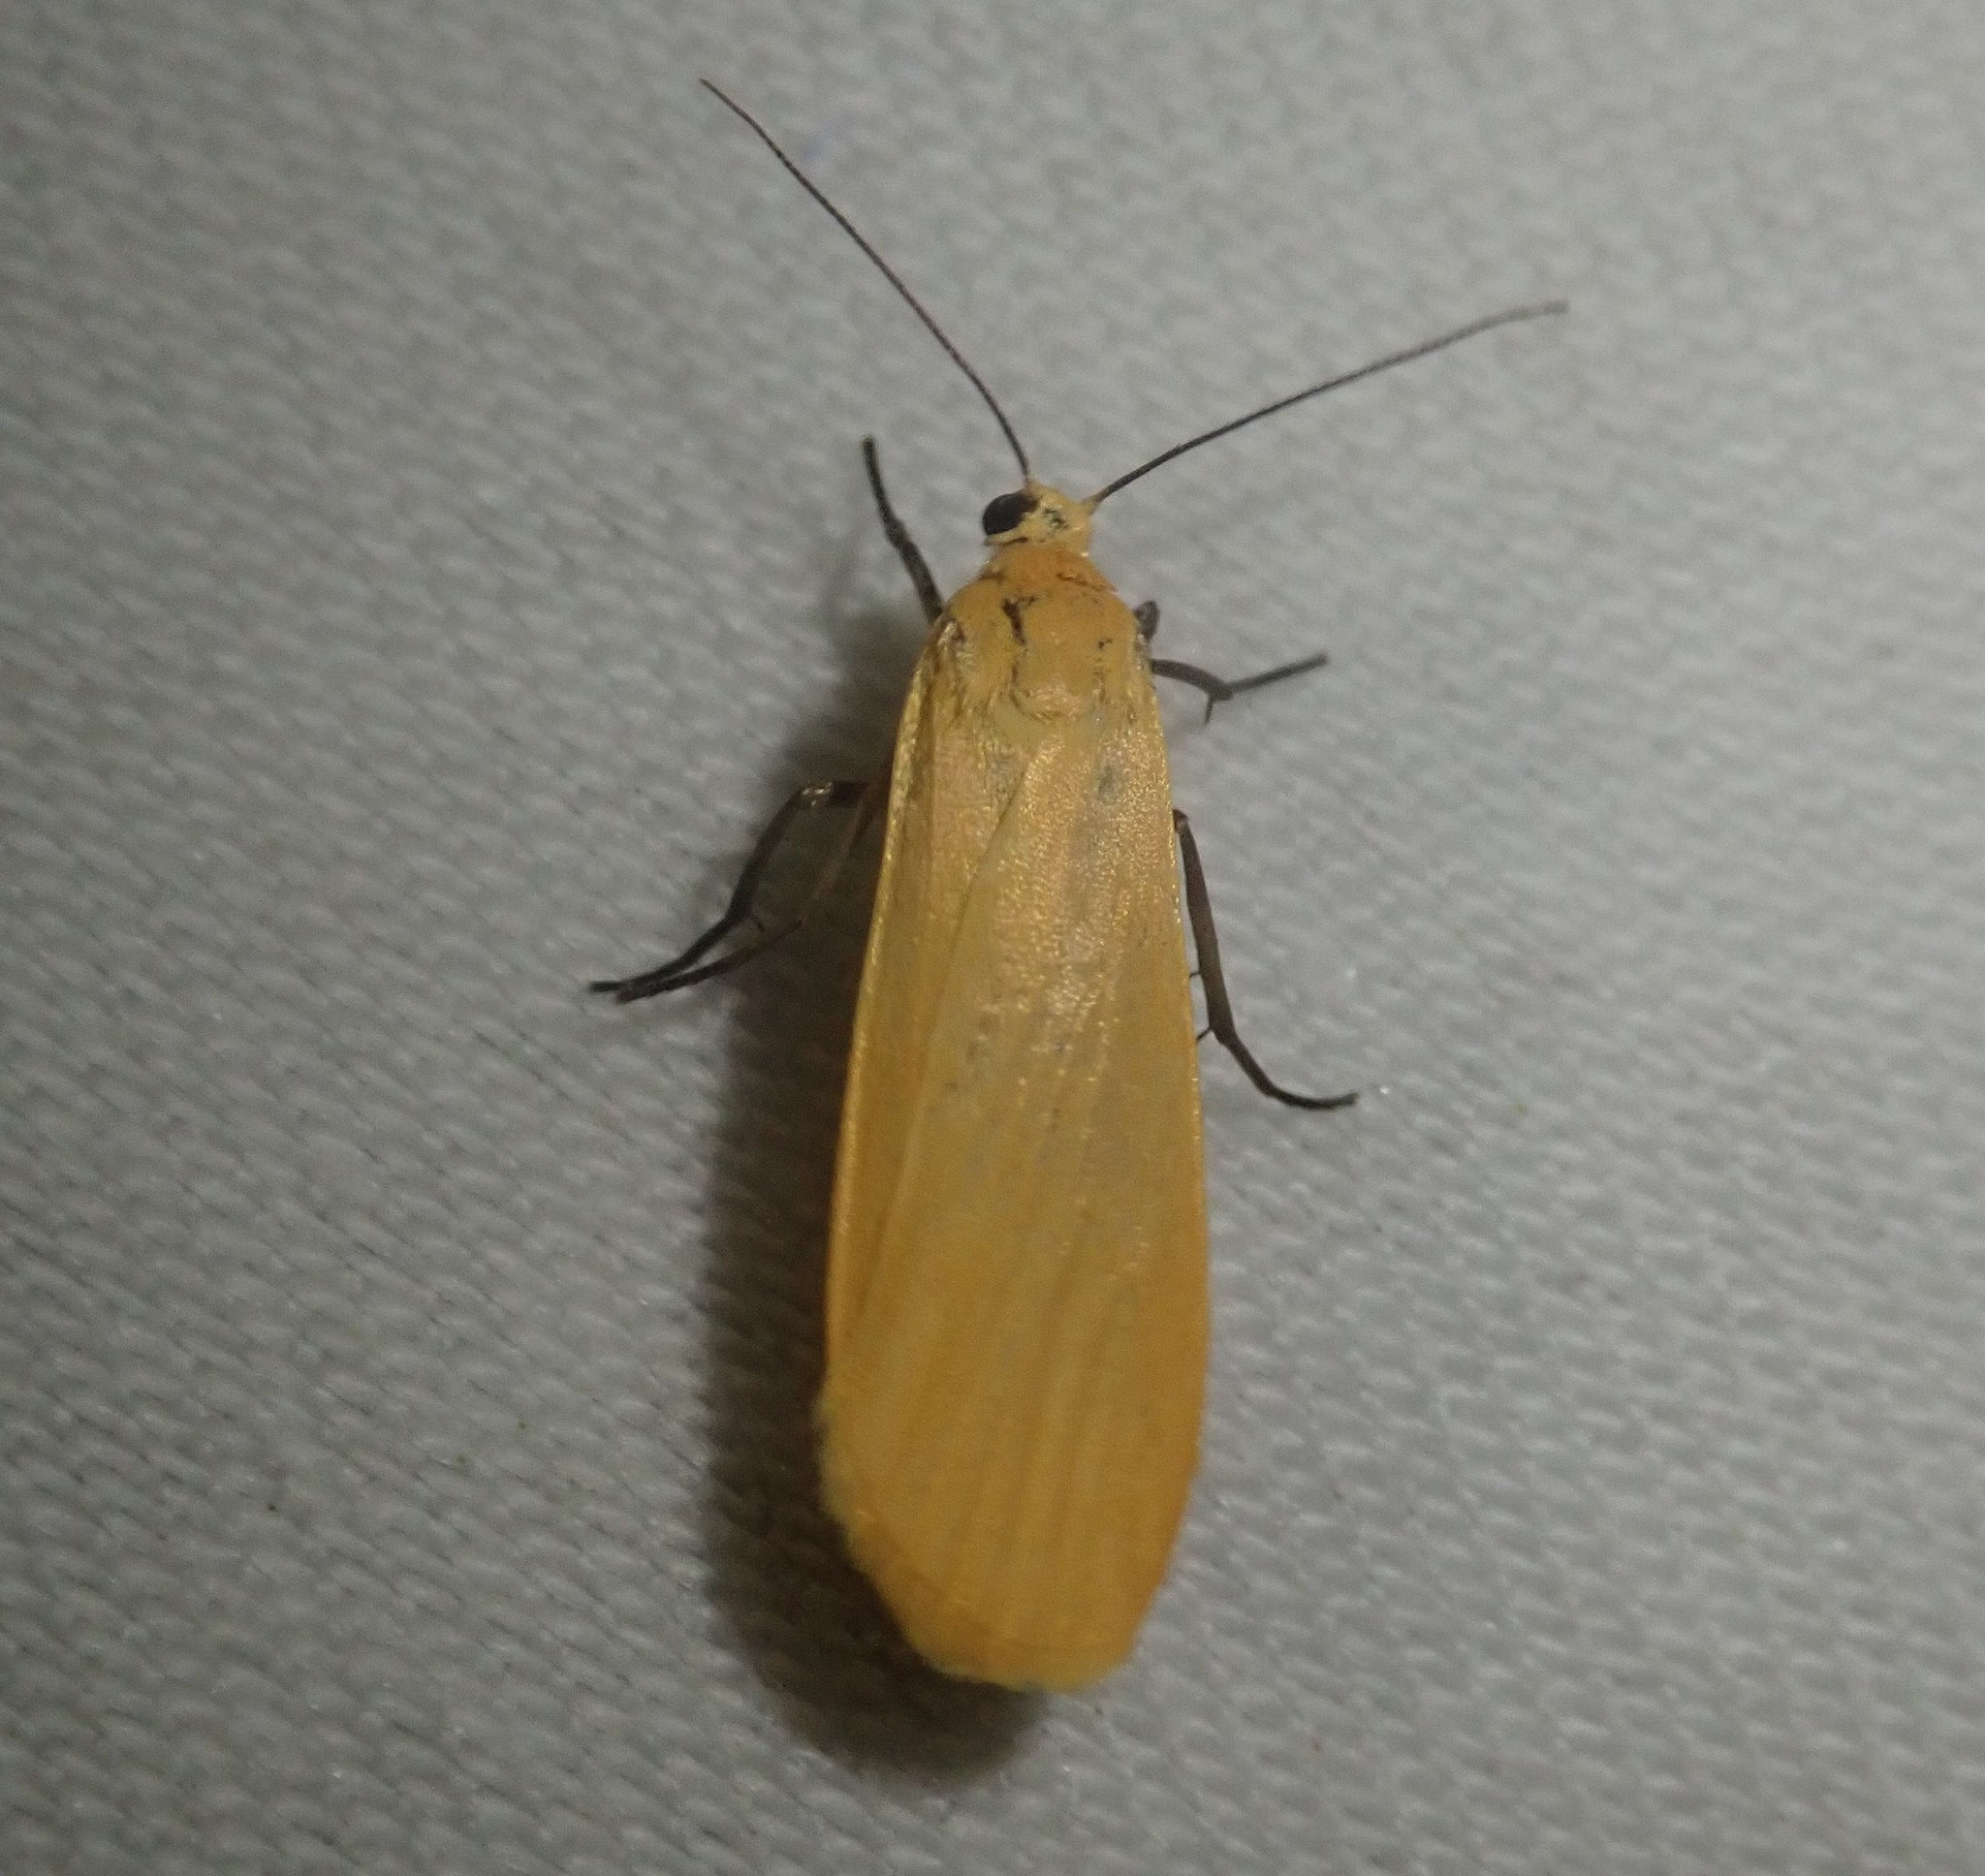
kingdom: Animalia
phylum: Arthropoda
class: Insecta
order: Lepidoptera
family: Erebidae
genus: Wittia
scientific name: Wittia sororcula
